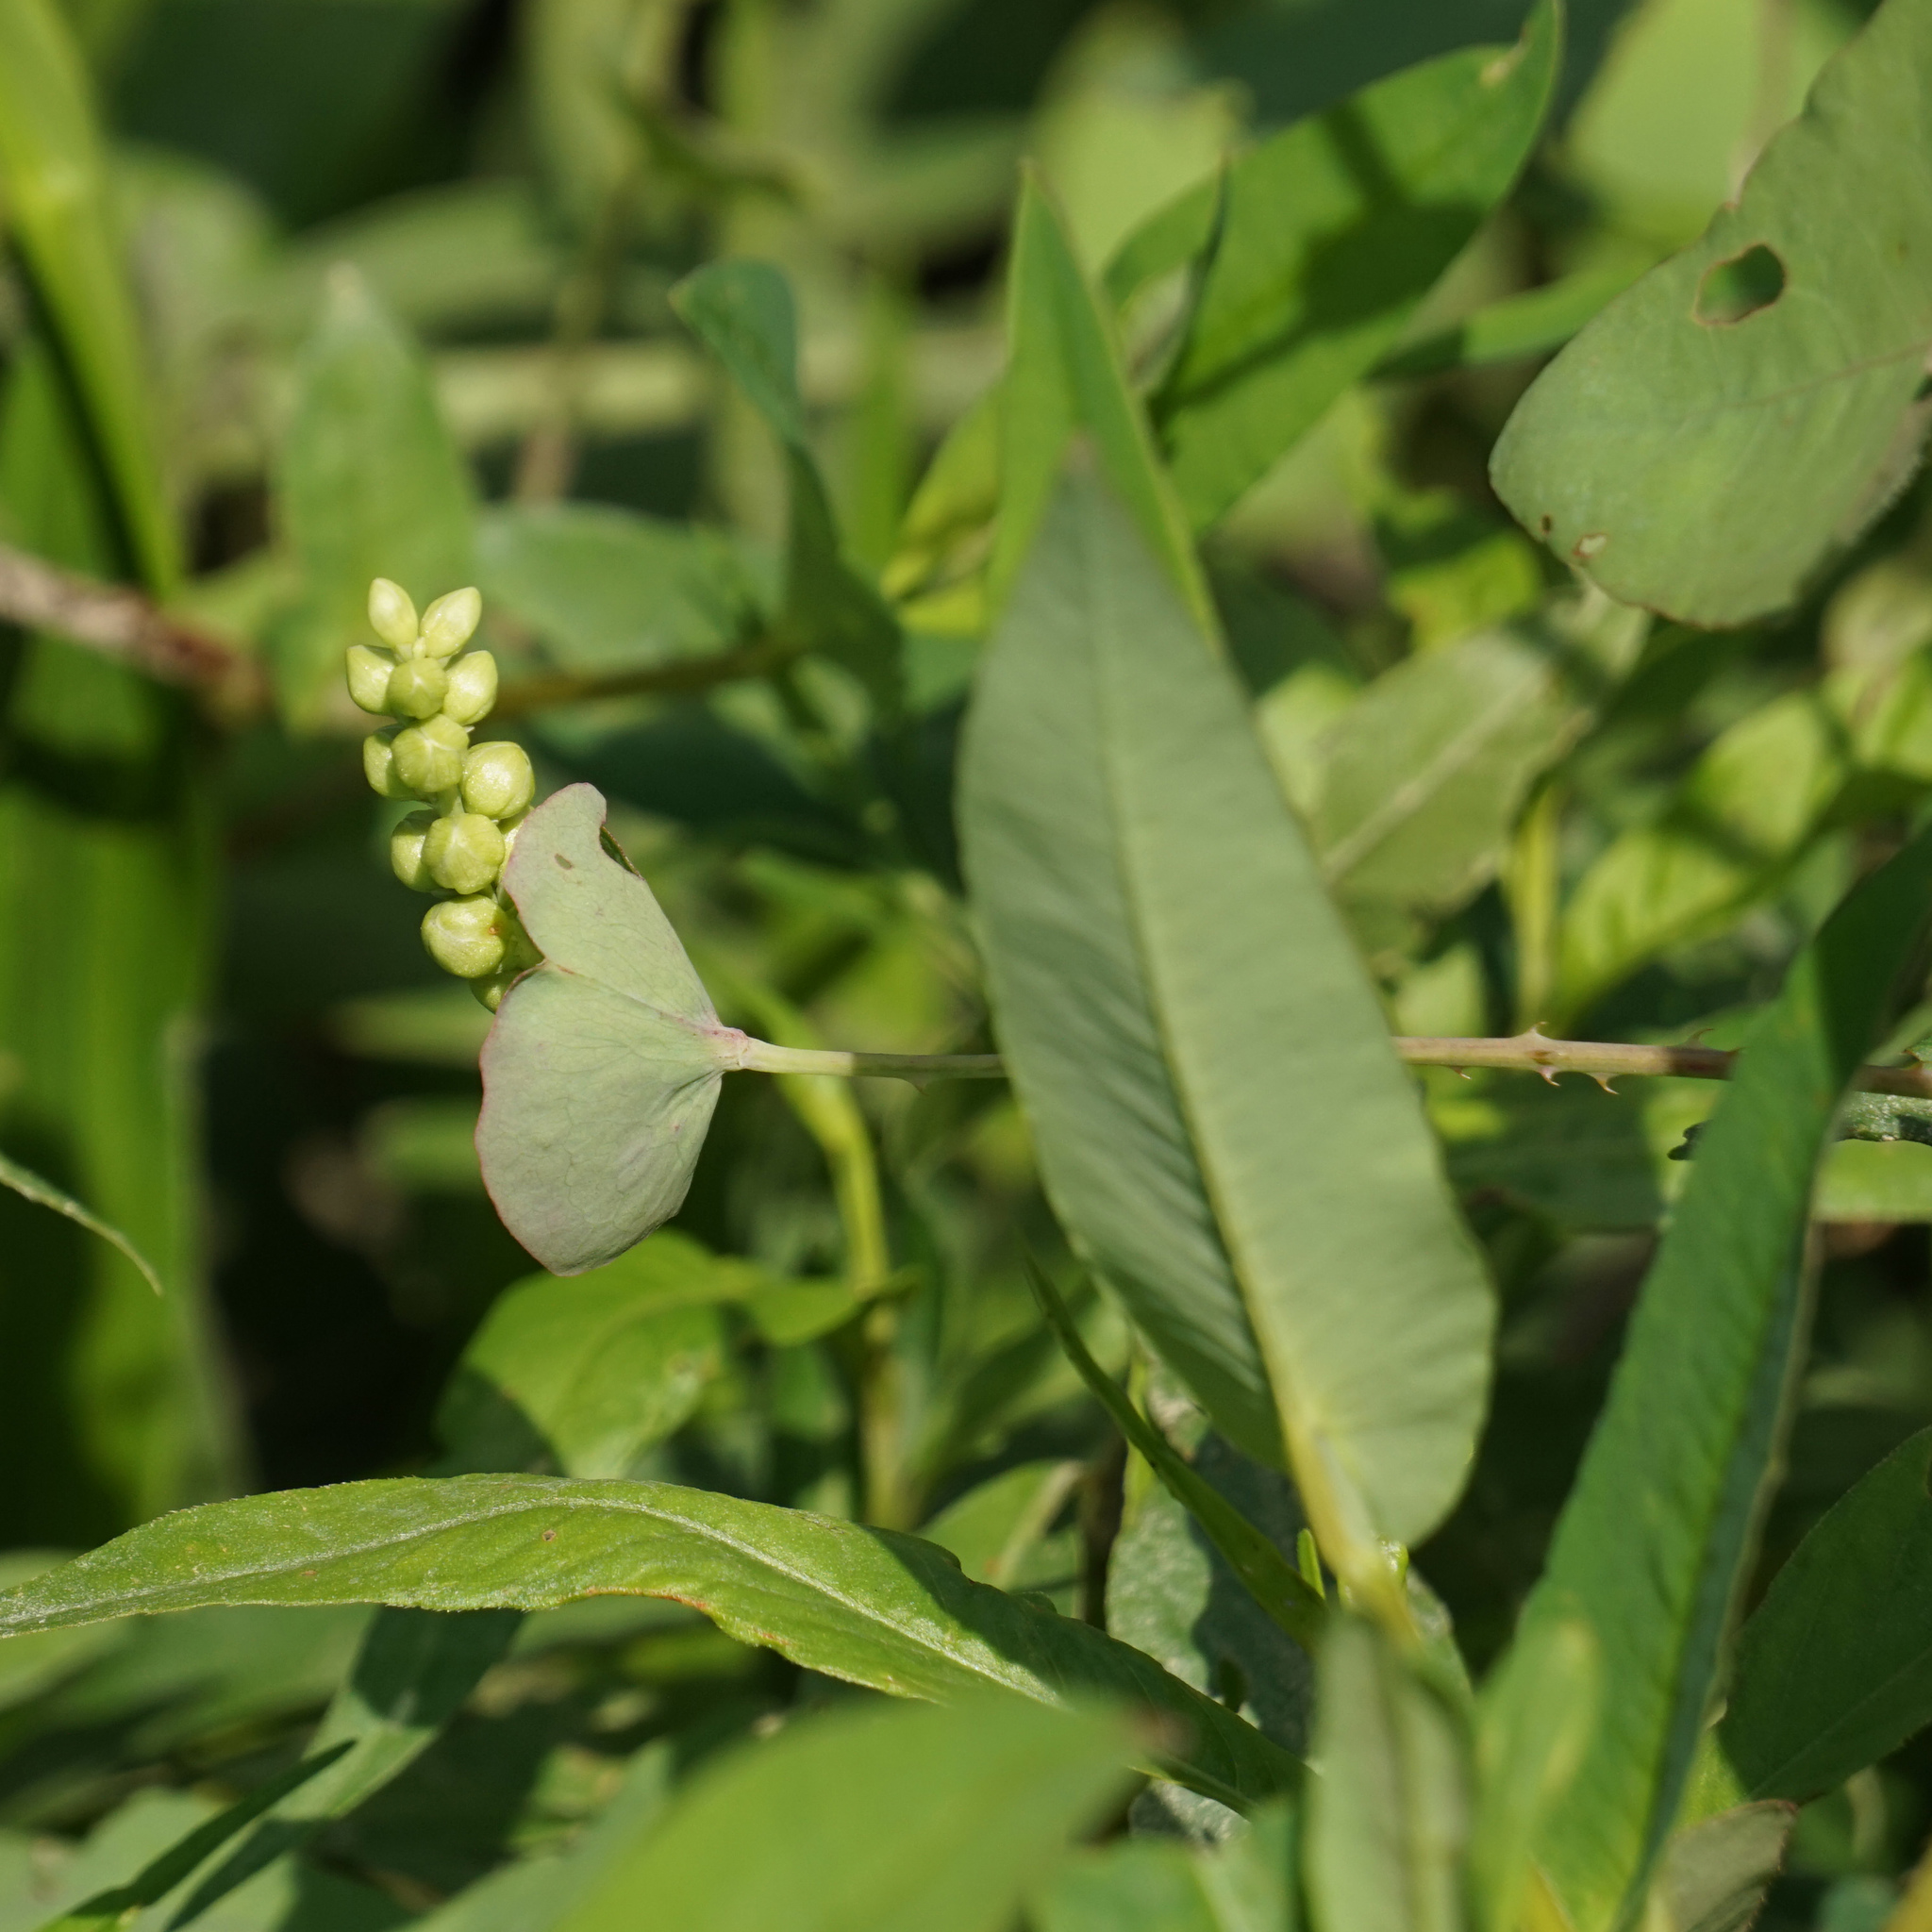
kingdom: Plantae
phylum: Tracheophyta
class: Magnoliopsida
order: Caryophyllales
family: Polygonaceae
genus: Persicaria
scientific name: Persicaria perfoliata
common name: Asiatic tearthumb
